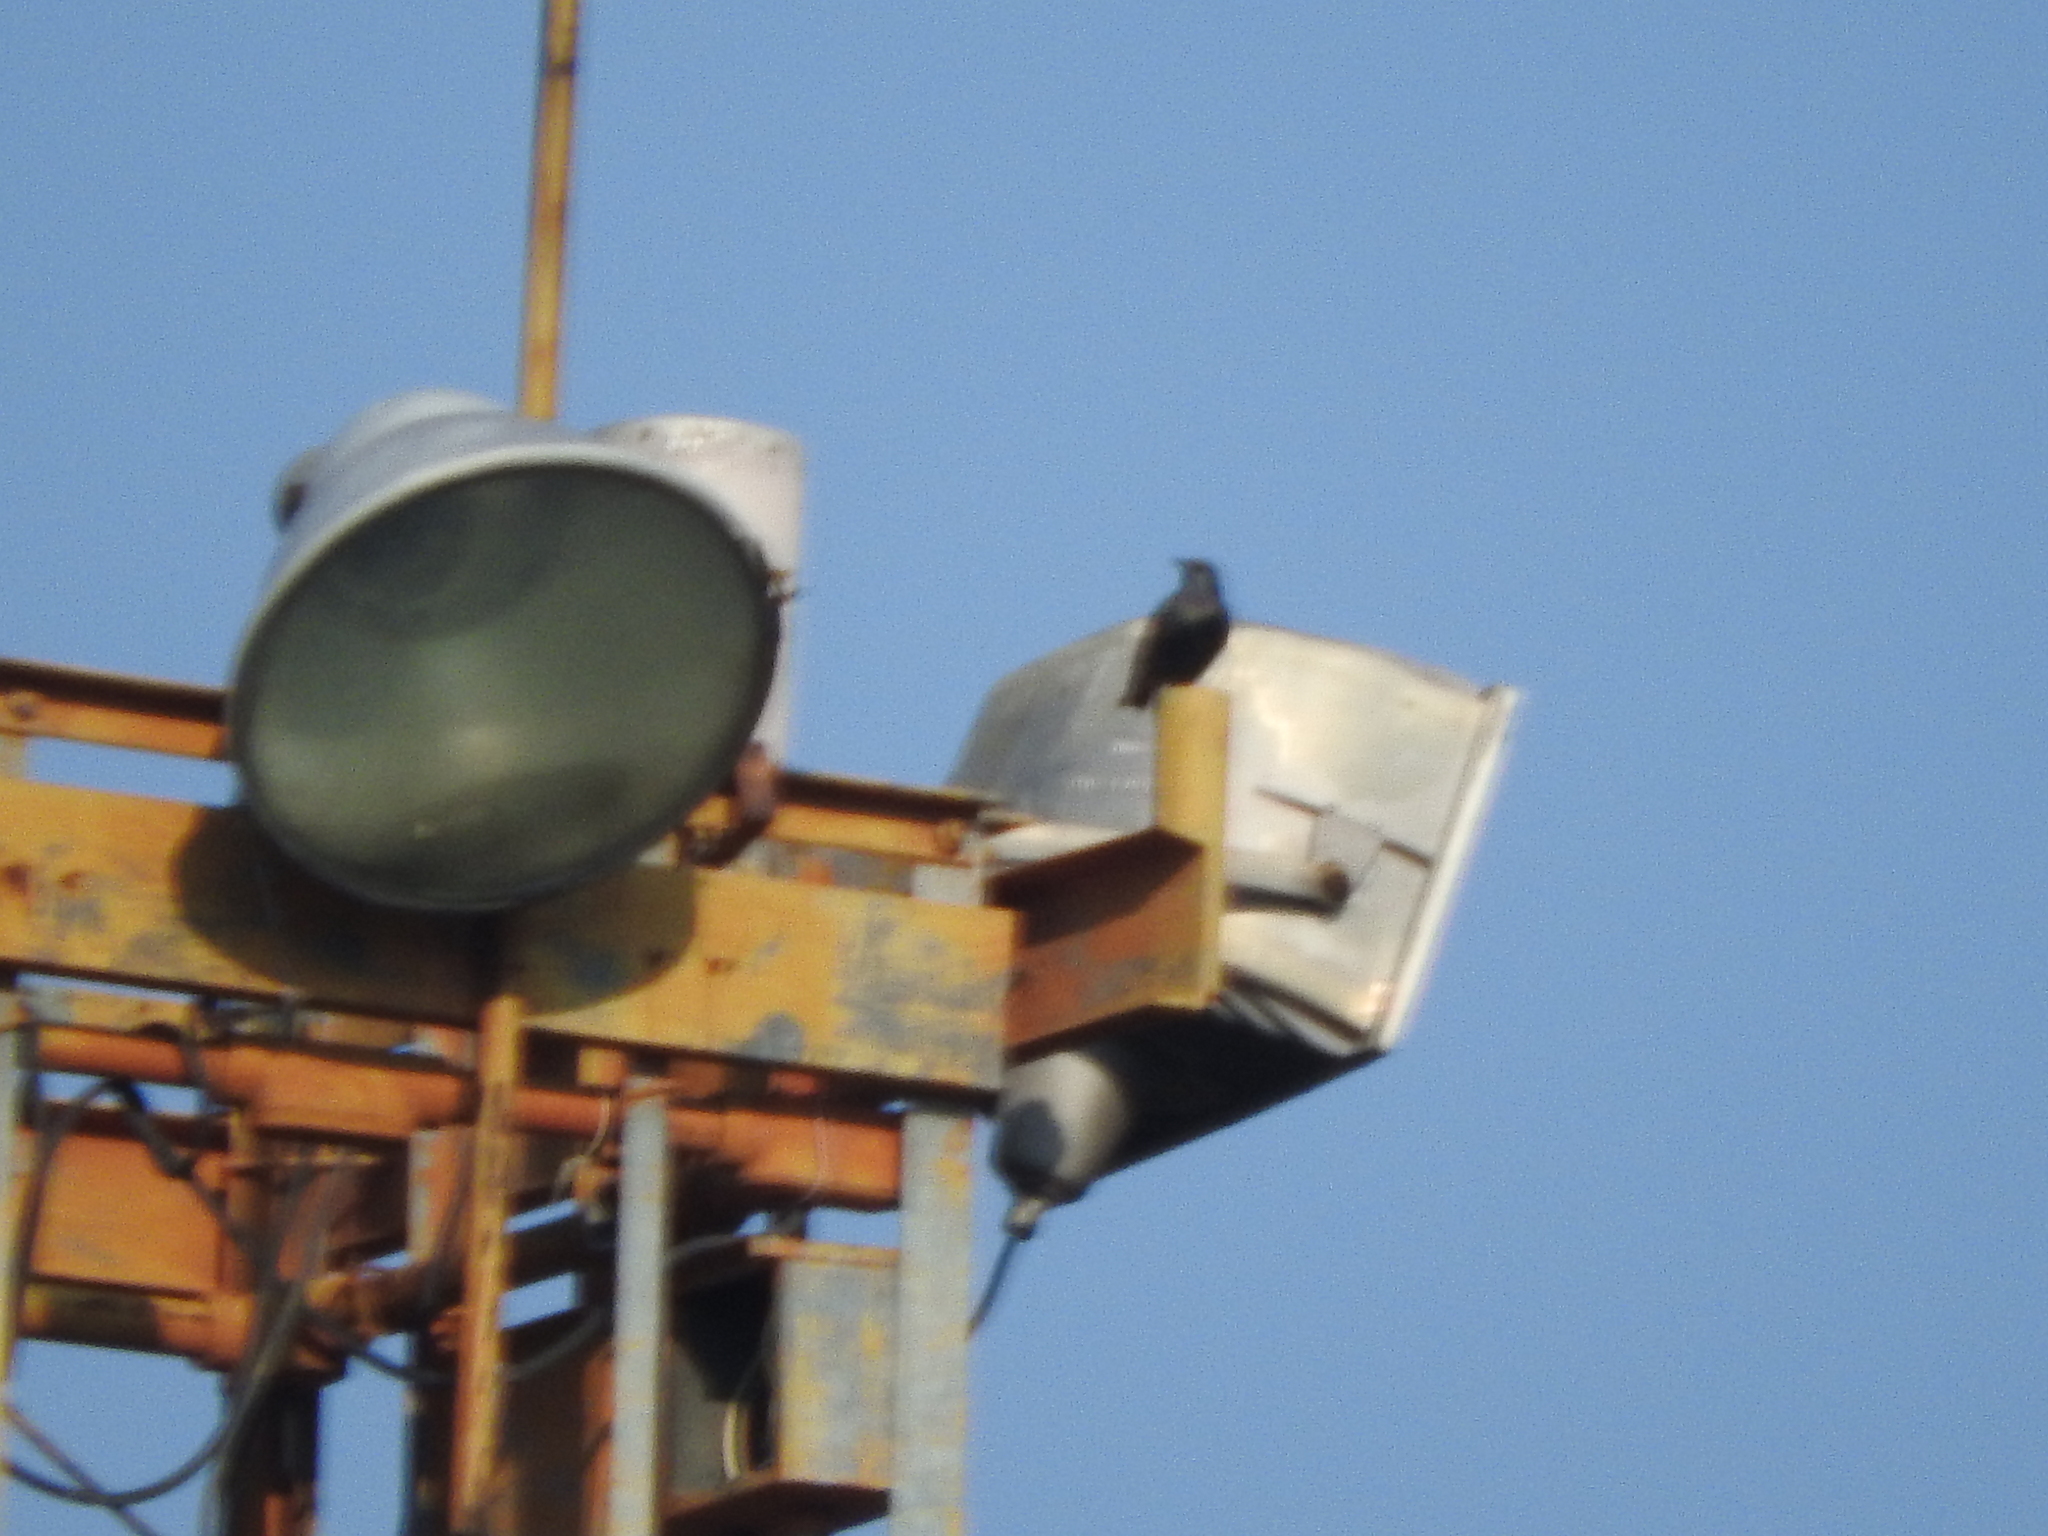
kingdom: Animalia
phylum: Chordata
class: Aves
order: Passeriformes
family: Sturnidae
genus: Sturnus
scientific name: Sturnus vulgaris
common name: Common starling
